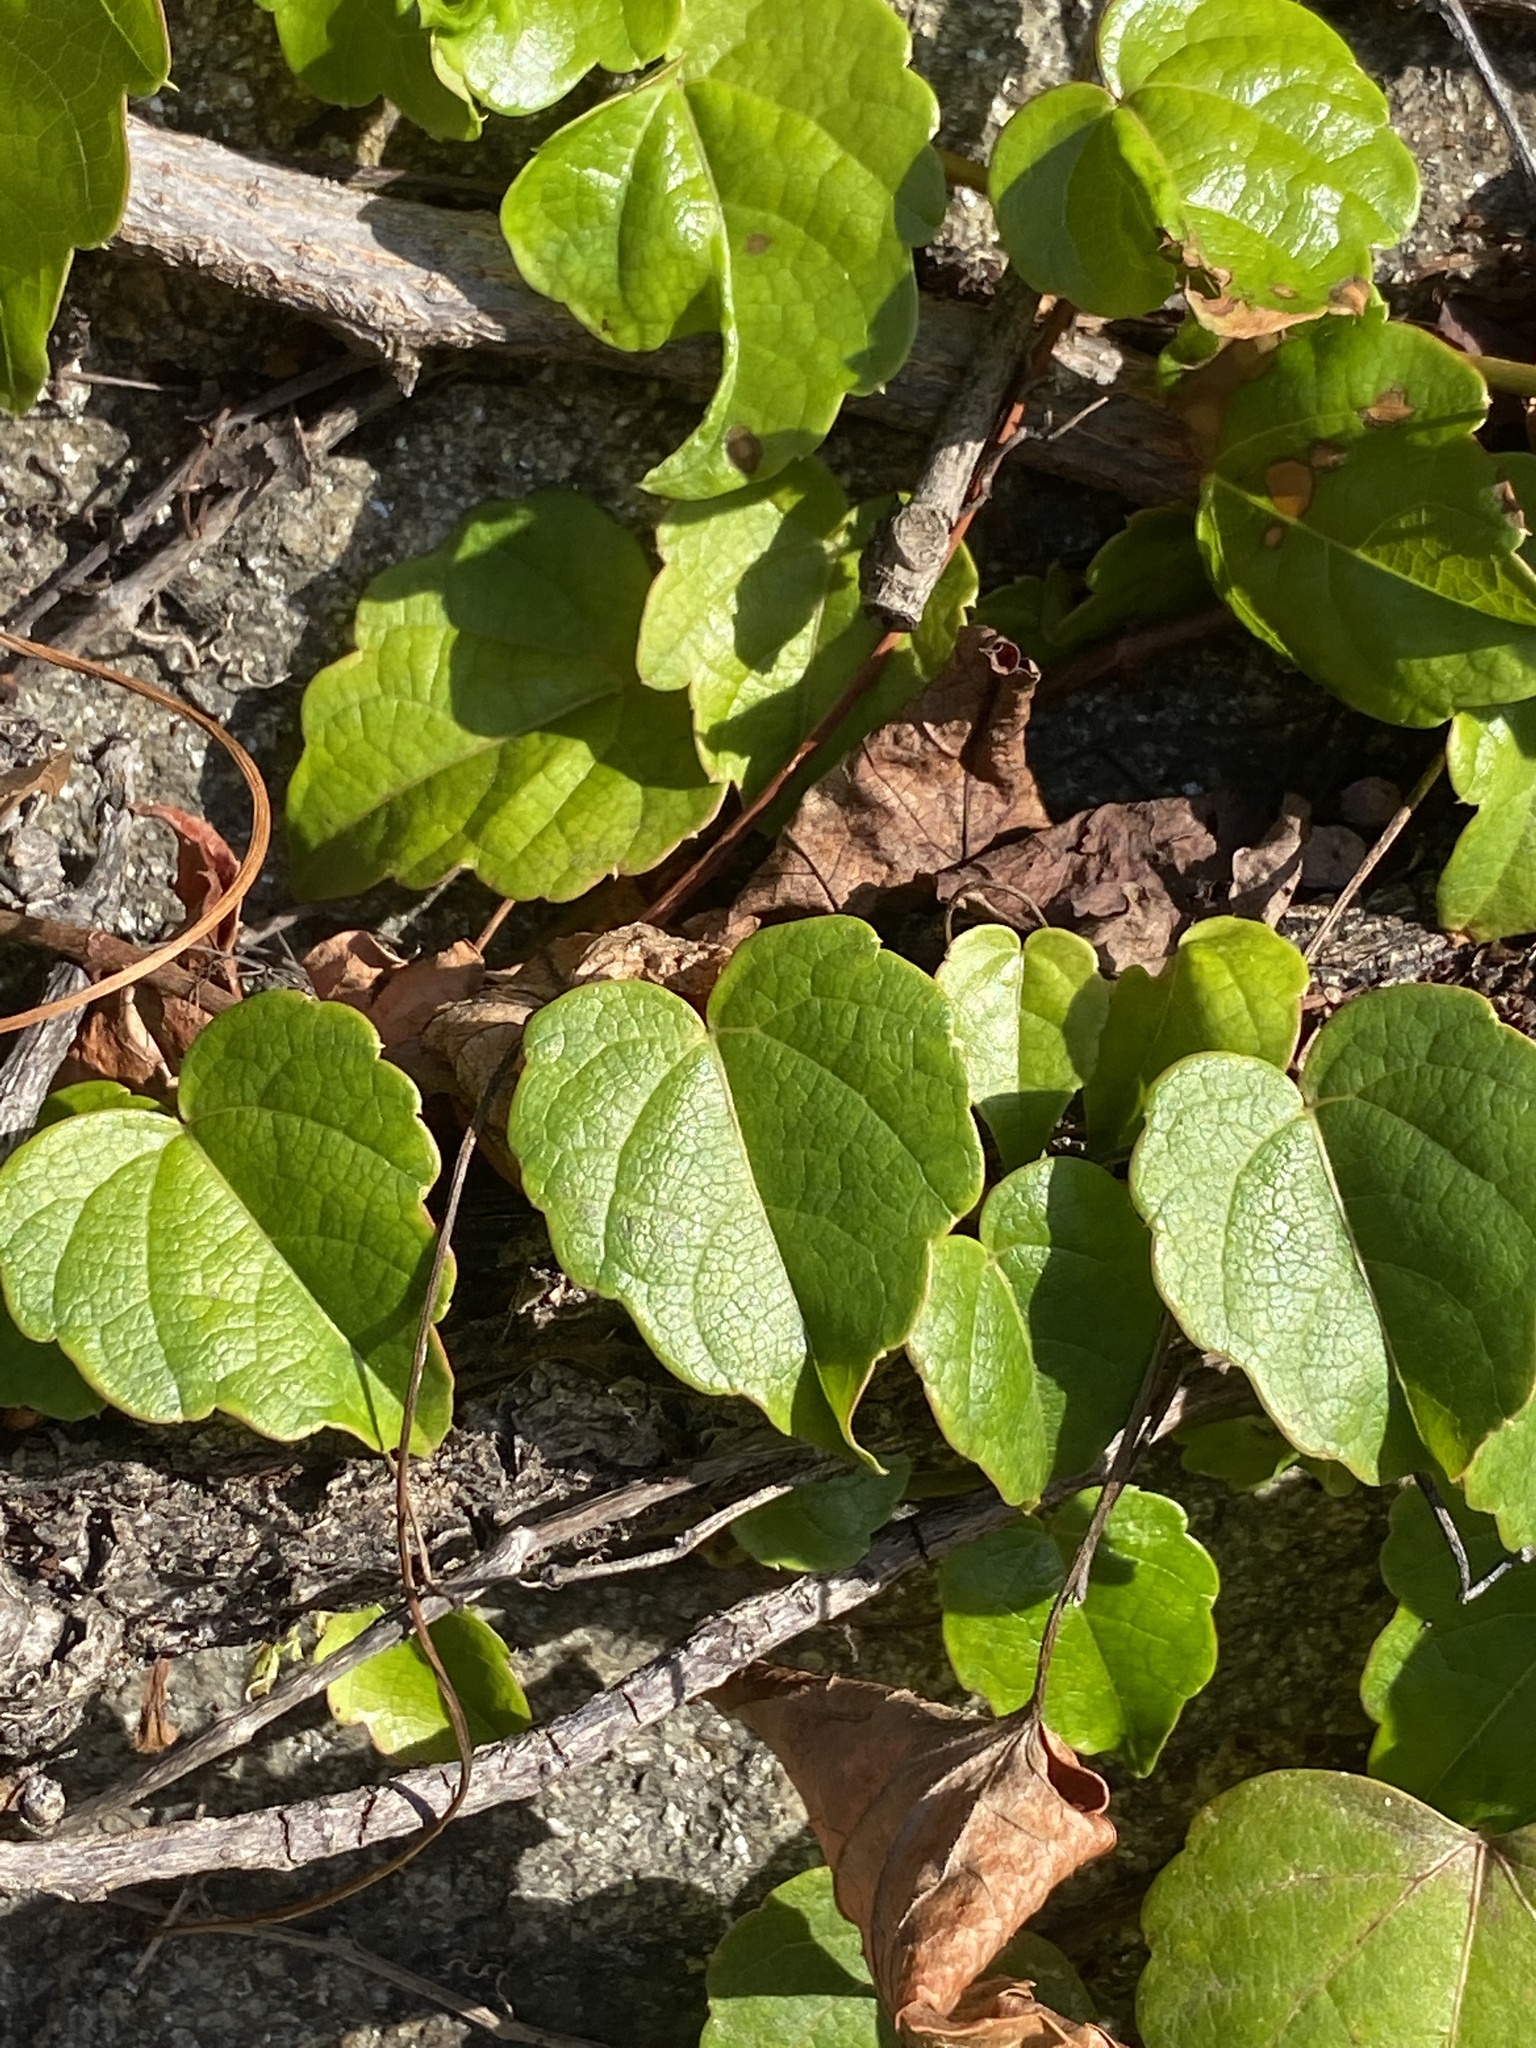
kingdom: Plantae
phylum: Tracheophyta
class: Magnoliopsida
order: Vitales
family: Vitaceae
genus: Parthenocissus
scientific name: Parthenocissus tricuspidata
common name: Boston ivy
